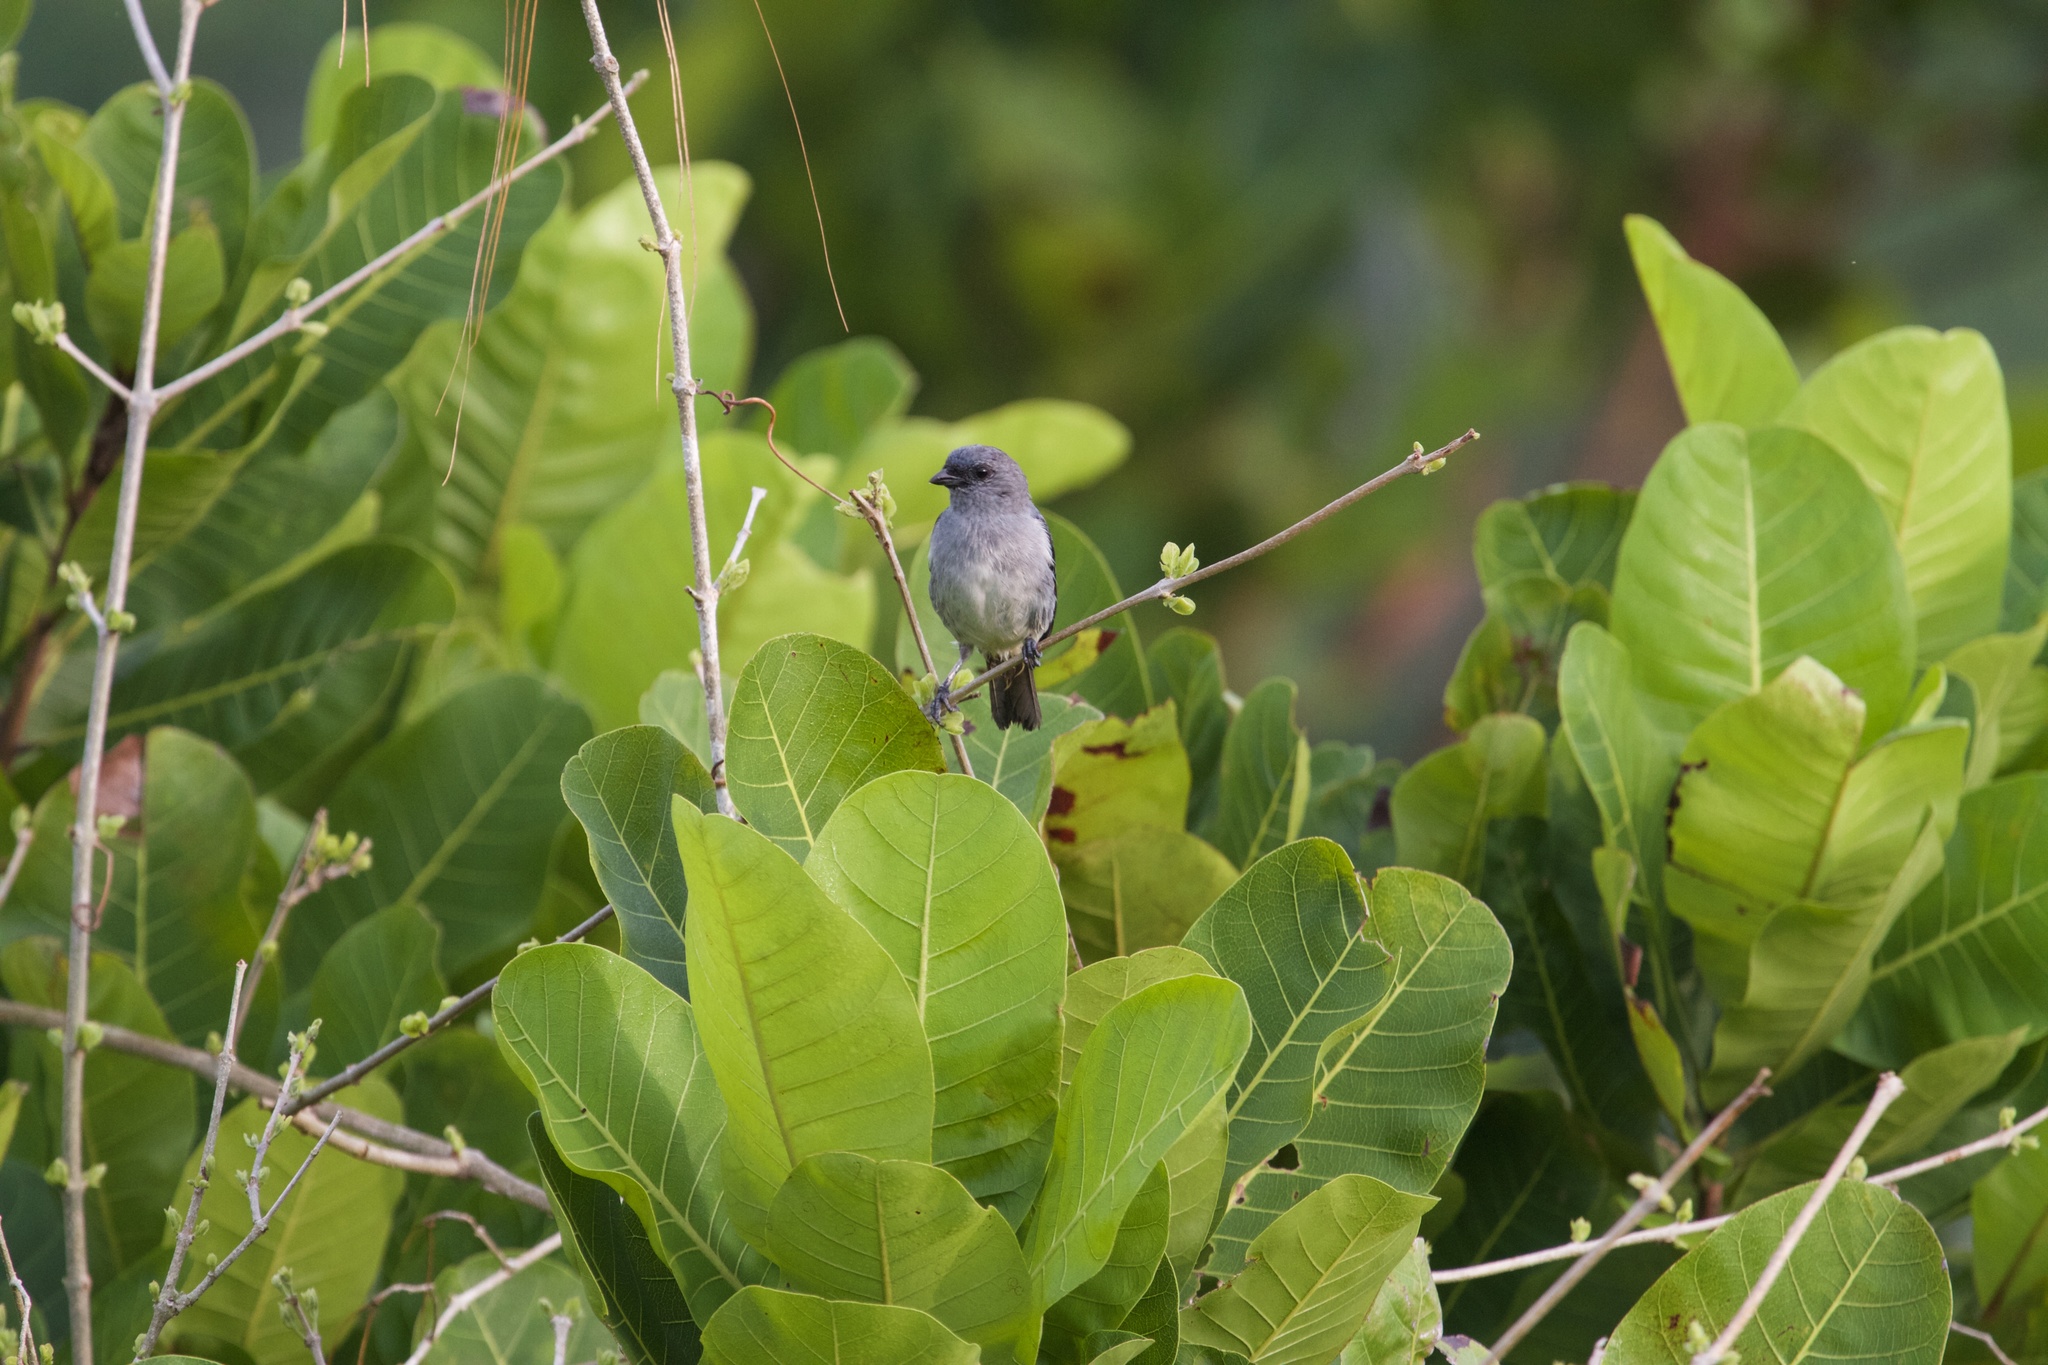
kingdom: Animalia
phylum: Chordata
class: Aves
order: Passeriformes
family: Thraupidae
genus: Tangara
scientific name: Tangara inornata
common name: Plain-colored tanager
